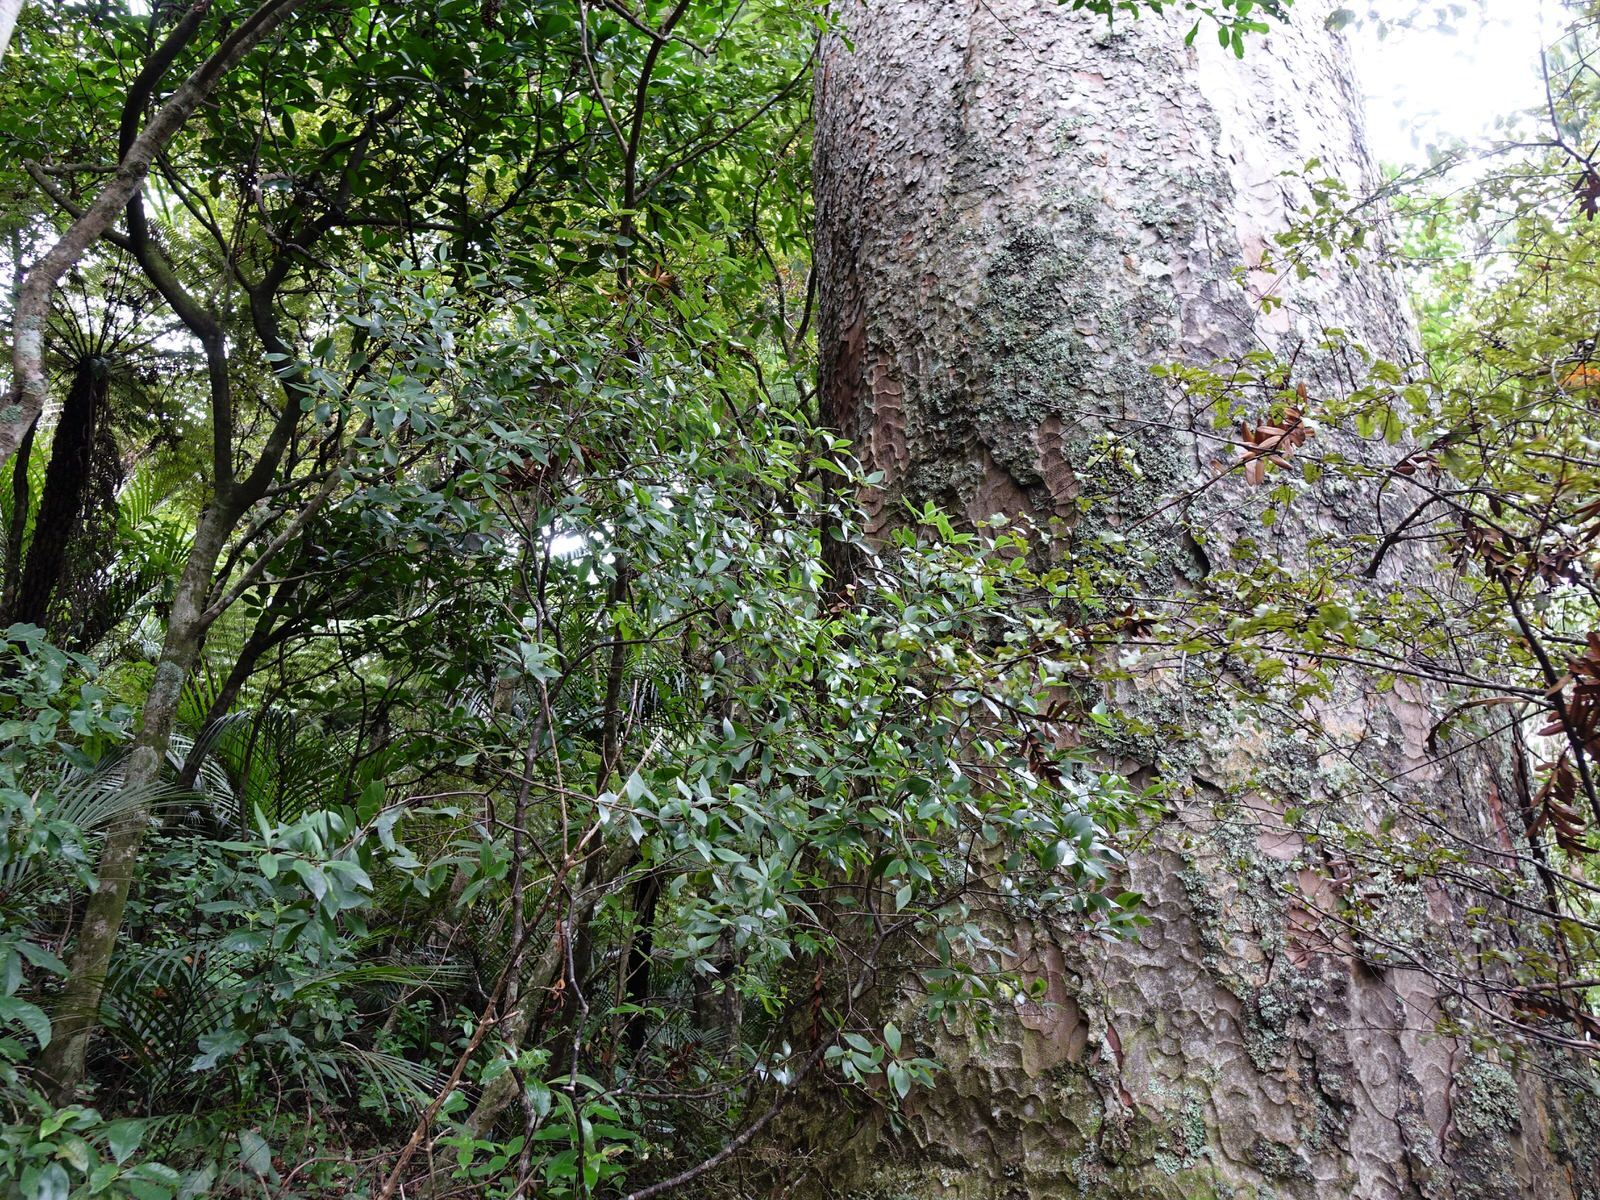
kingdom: Plantae
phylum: Tracheophyta
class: Magnoliopsida
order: Apiales
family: Pittosporaceae
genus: Pittosporum
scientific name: Pittosporum cornifolium
